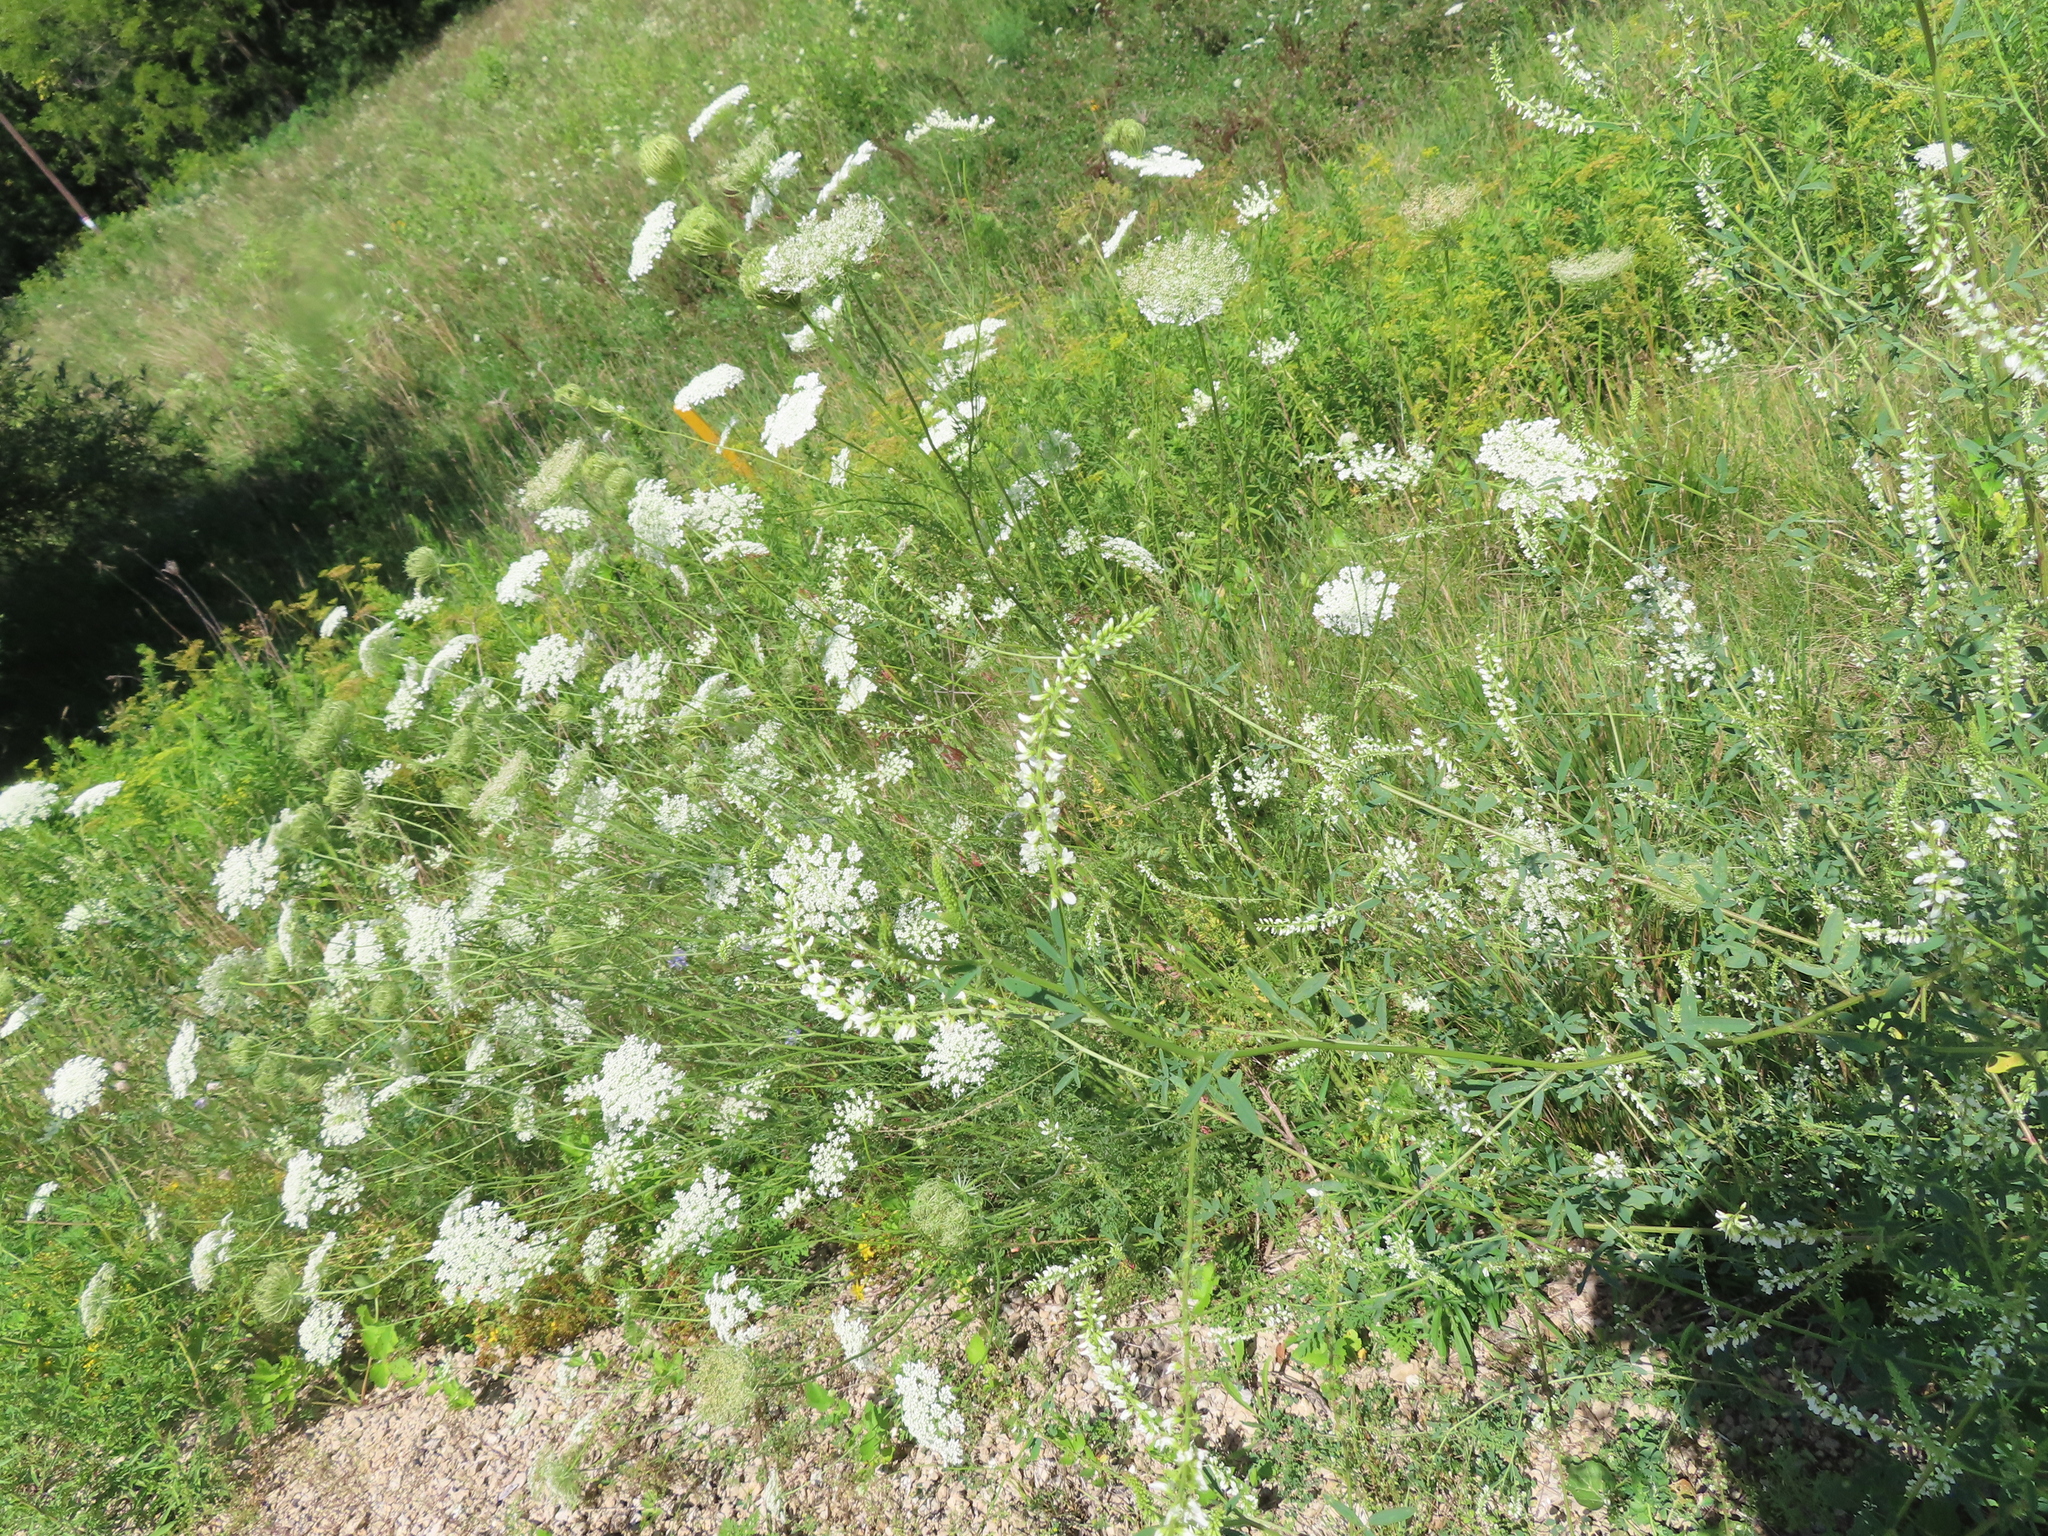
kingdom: Plantae
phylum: Tracheophyta
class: Magnoliopsida
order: Fabales
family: Fabaceae
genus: Melilotus
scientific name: Melilotus albus
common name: White melilot
